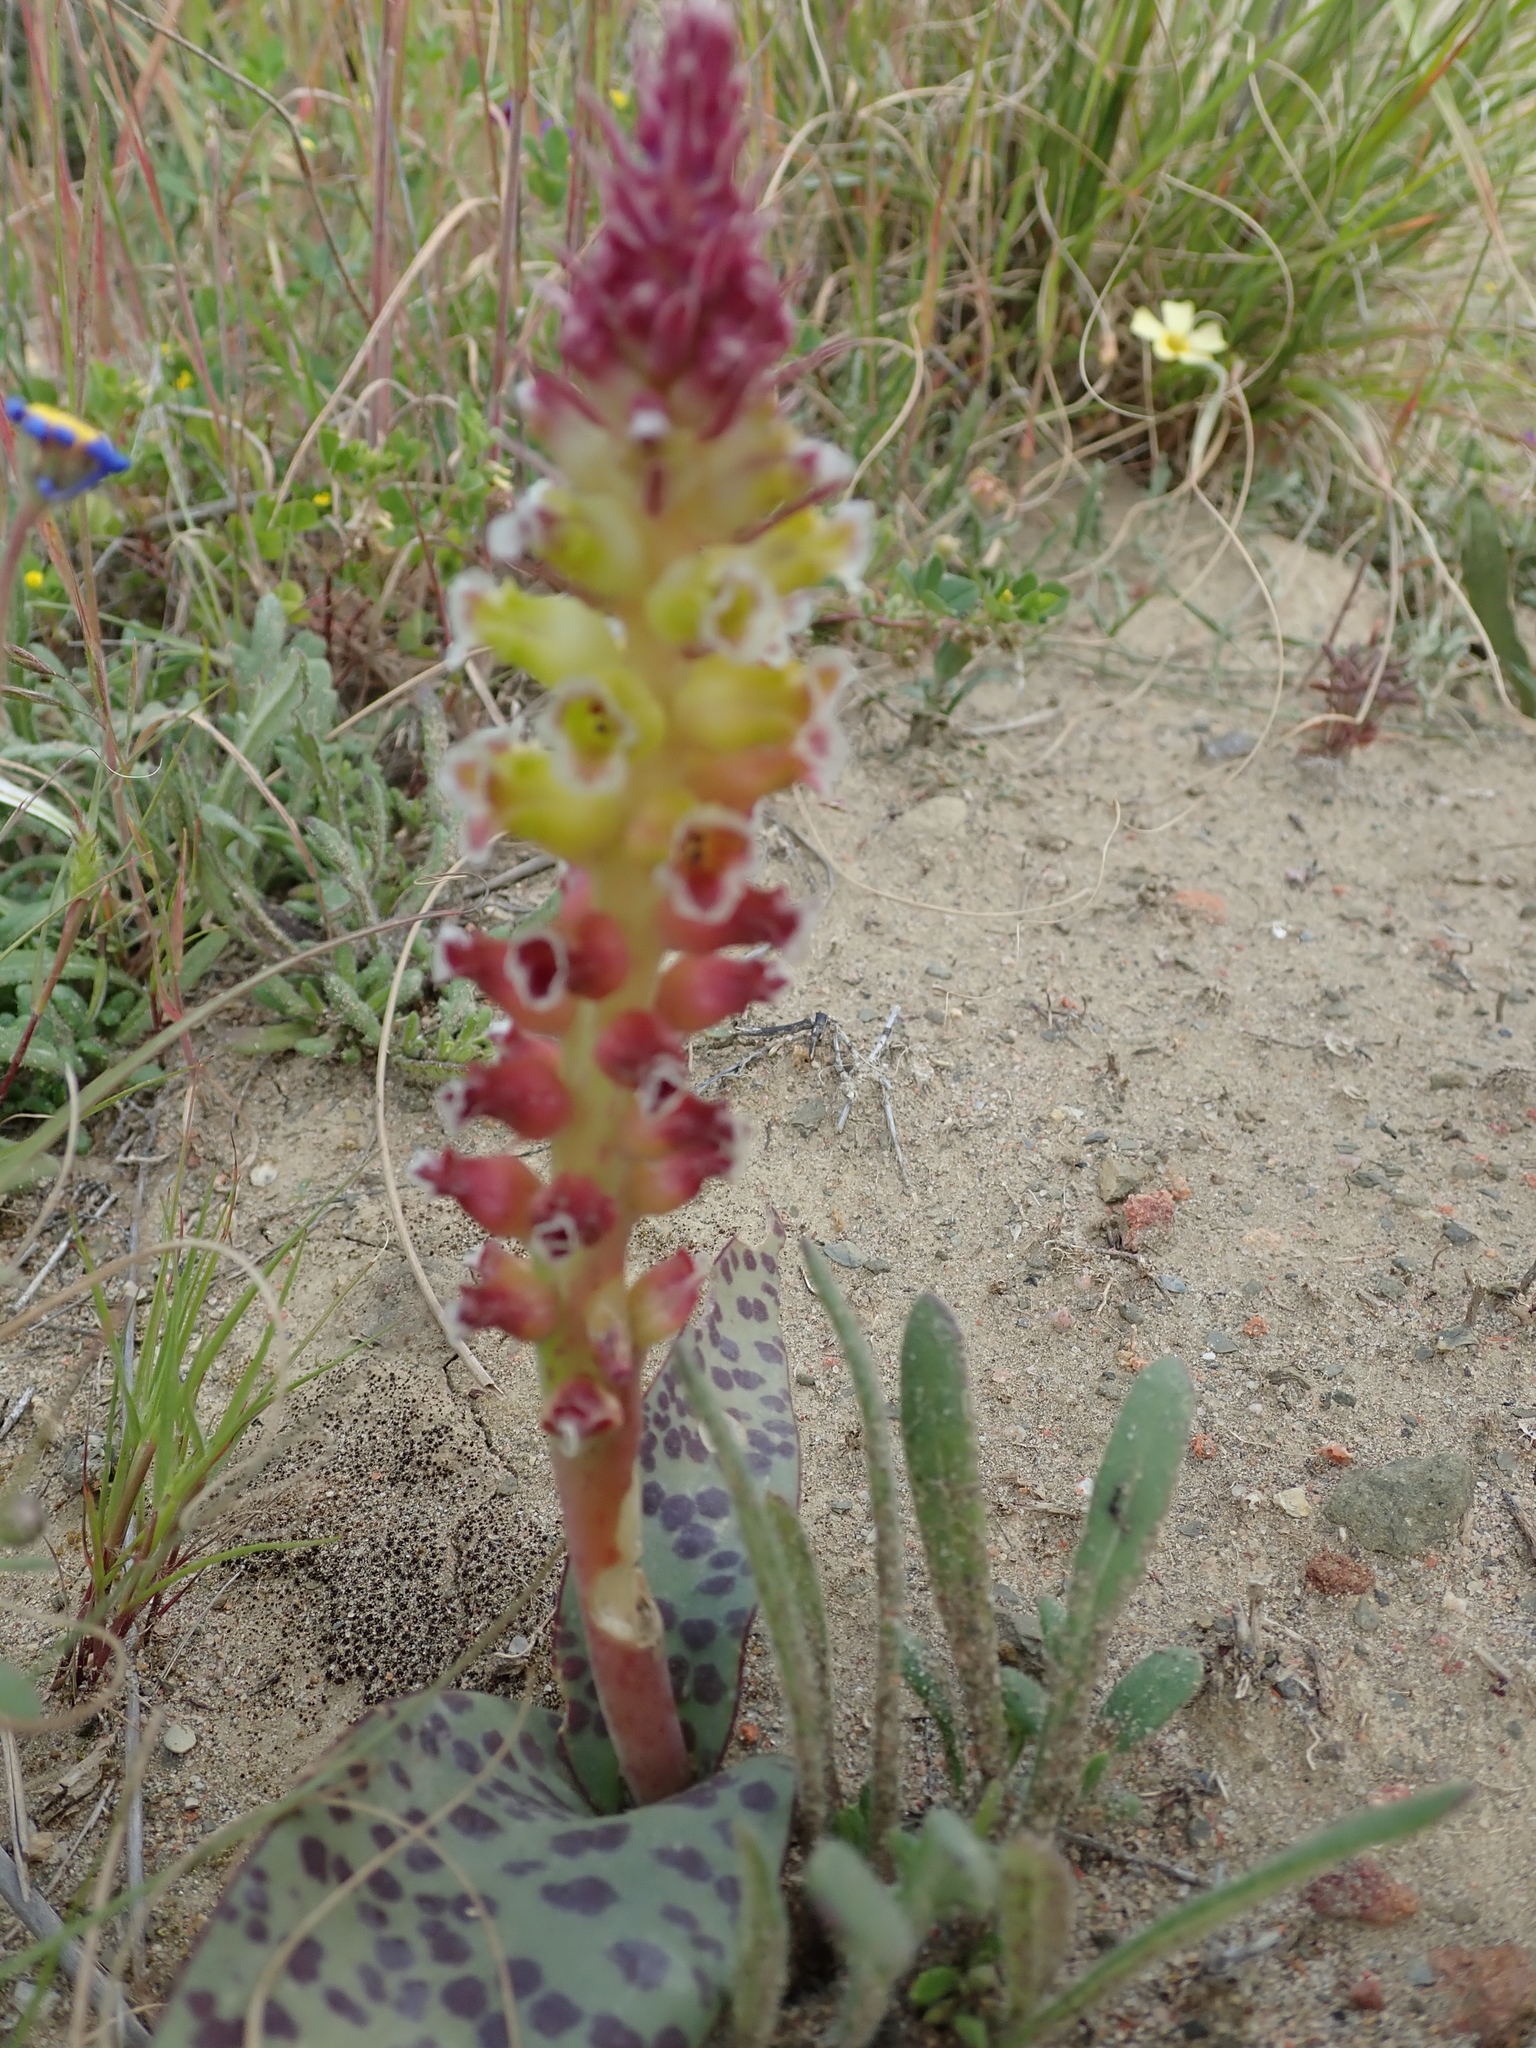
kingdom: Plantae
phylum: Tracheophyta
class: Liliopsida
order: Asparagales
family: Asparagaceae
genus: Lachenalia
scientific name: Lachenalia membranacea
